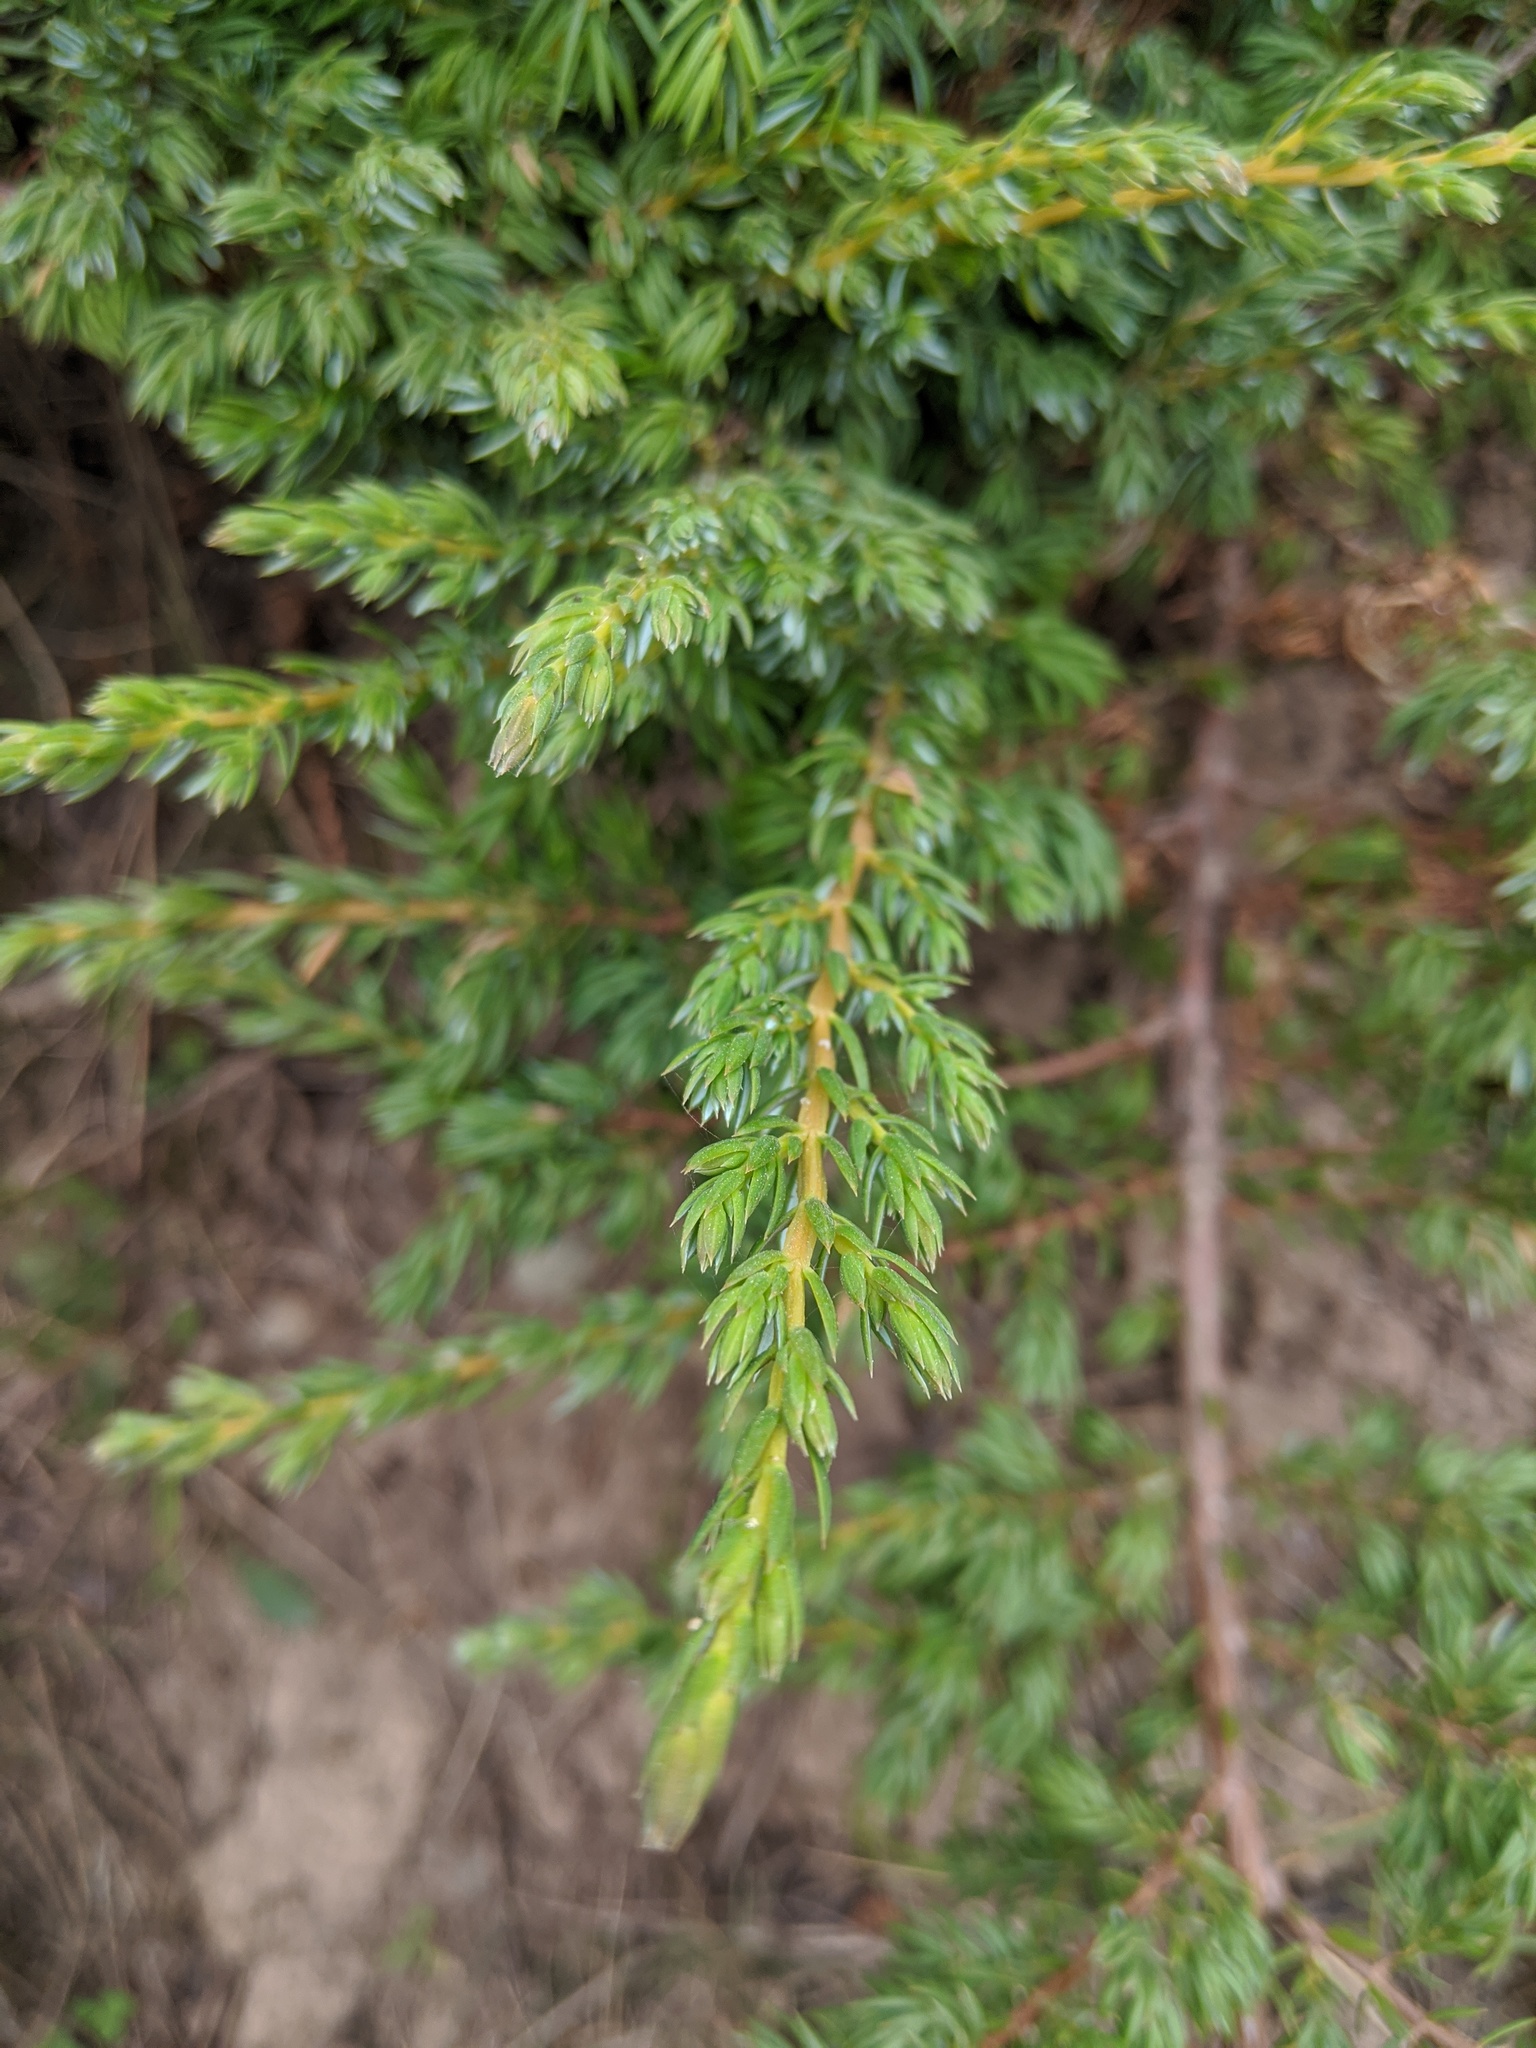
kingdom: Plantae
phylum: Tracheophyta
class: Pinopsida
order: Pinales
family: Cupressaceae
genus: Juniperus
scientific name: Juniperus communis
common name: Common juniper
